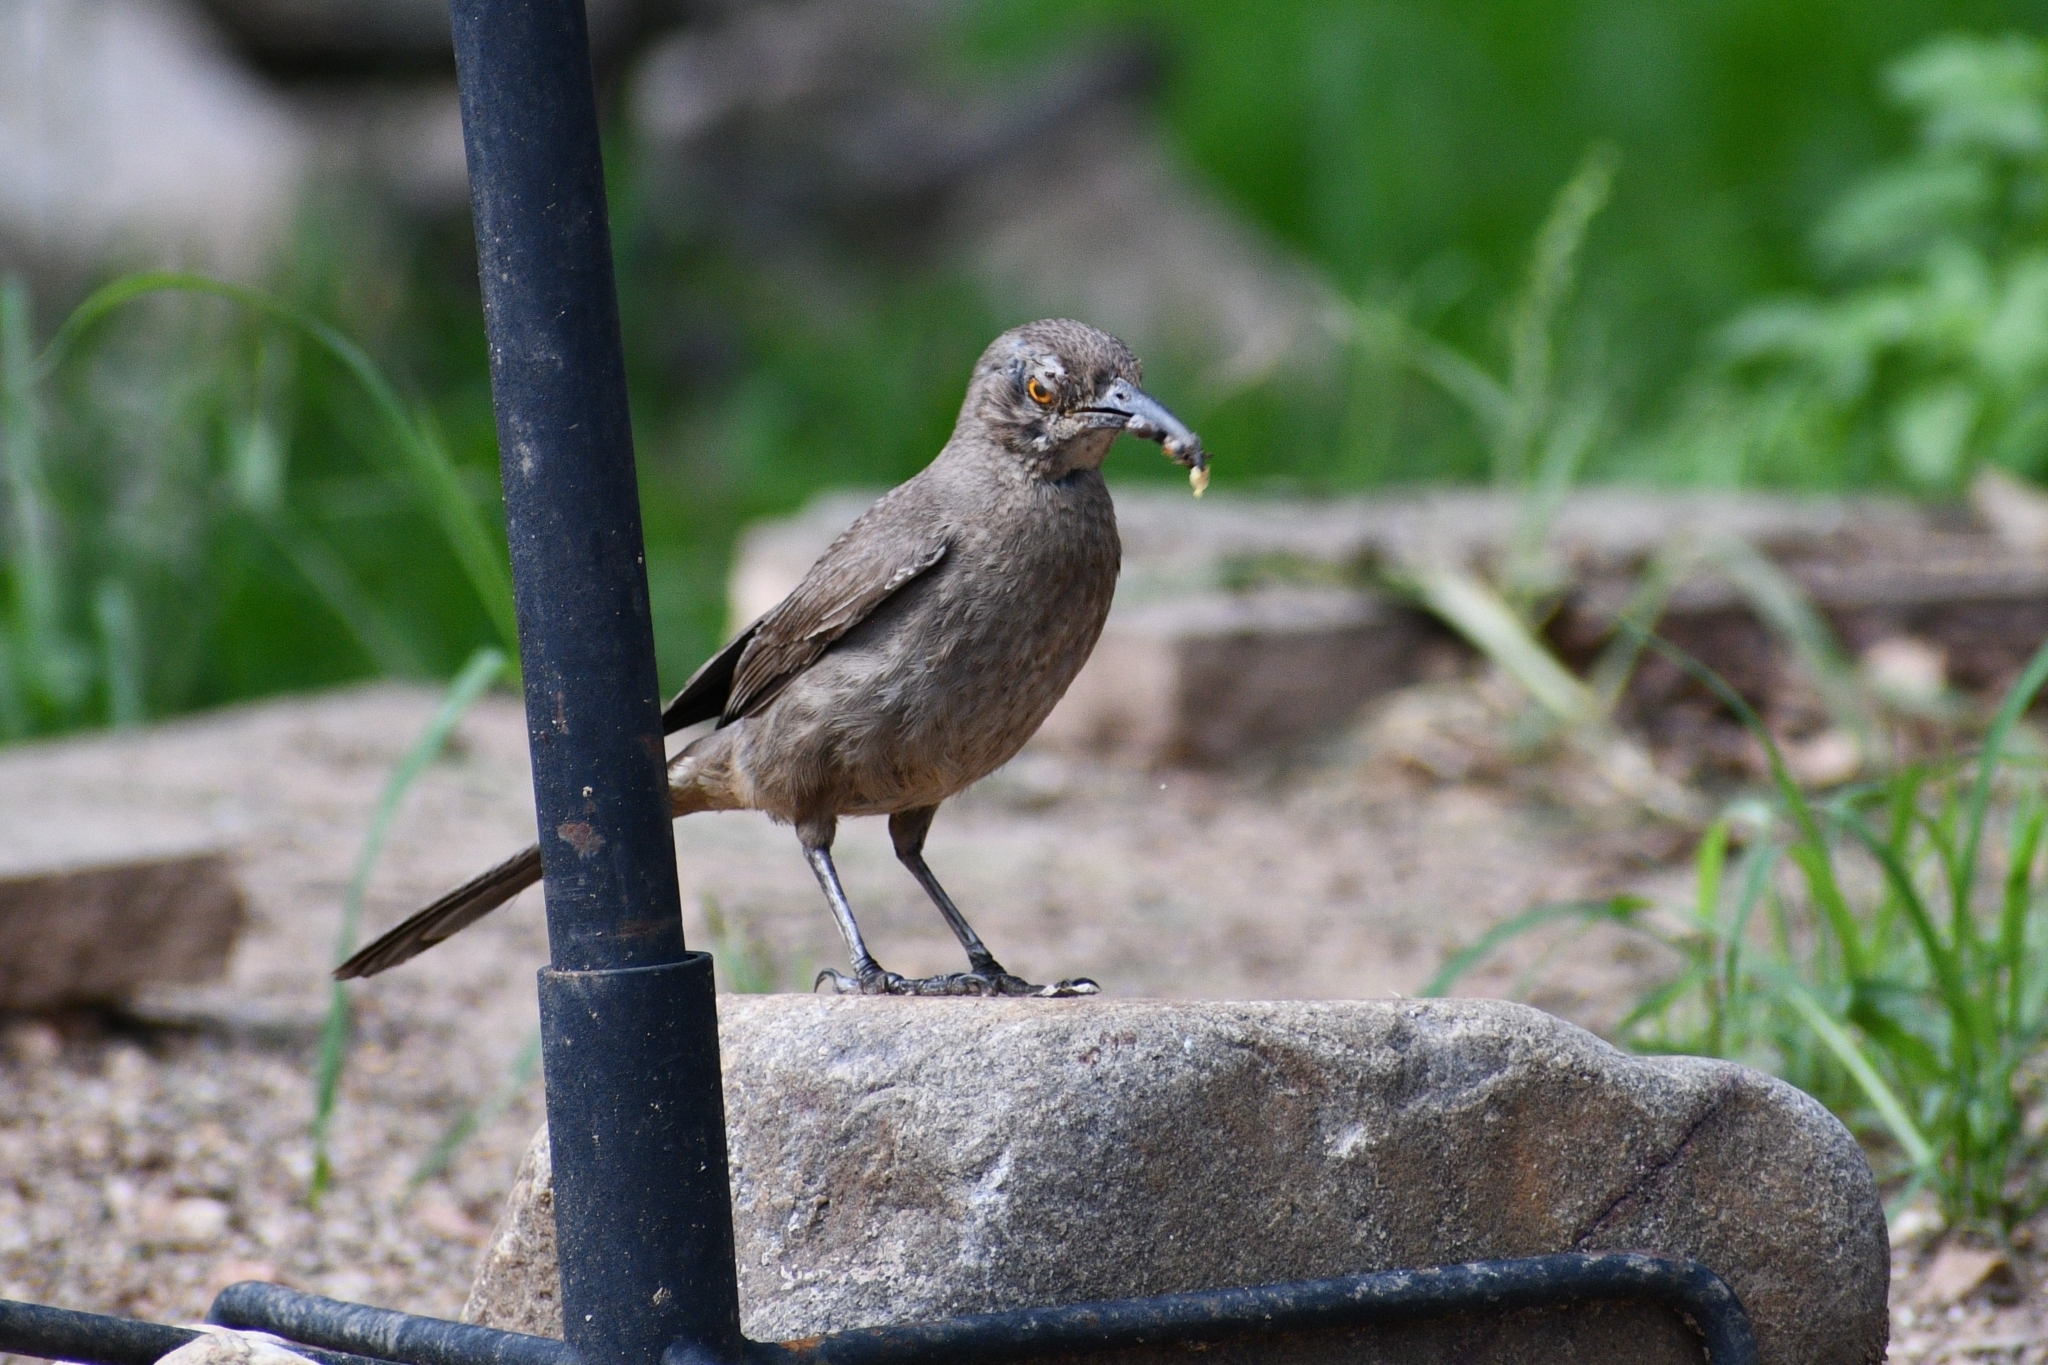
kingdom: Animalia
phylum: Chordata
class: Aves
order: Passeriformes
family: Mimidae
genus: Toxostoma
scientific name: Toxostoma curvirostre
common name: Curve-billed thrasher
